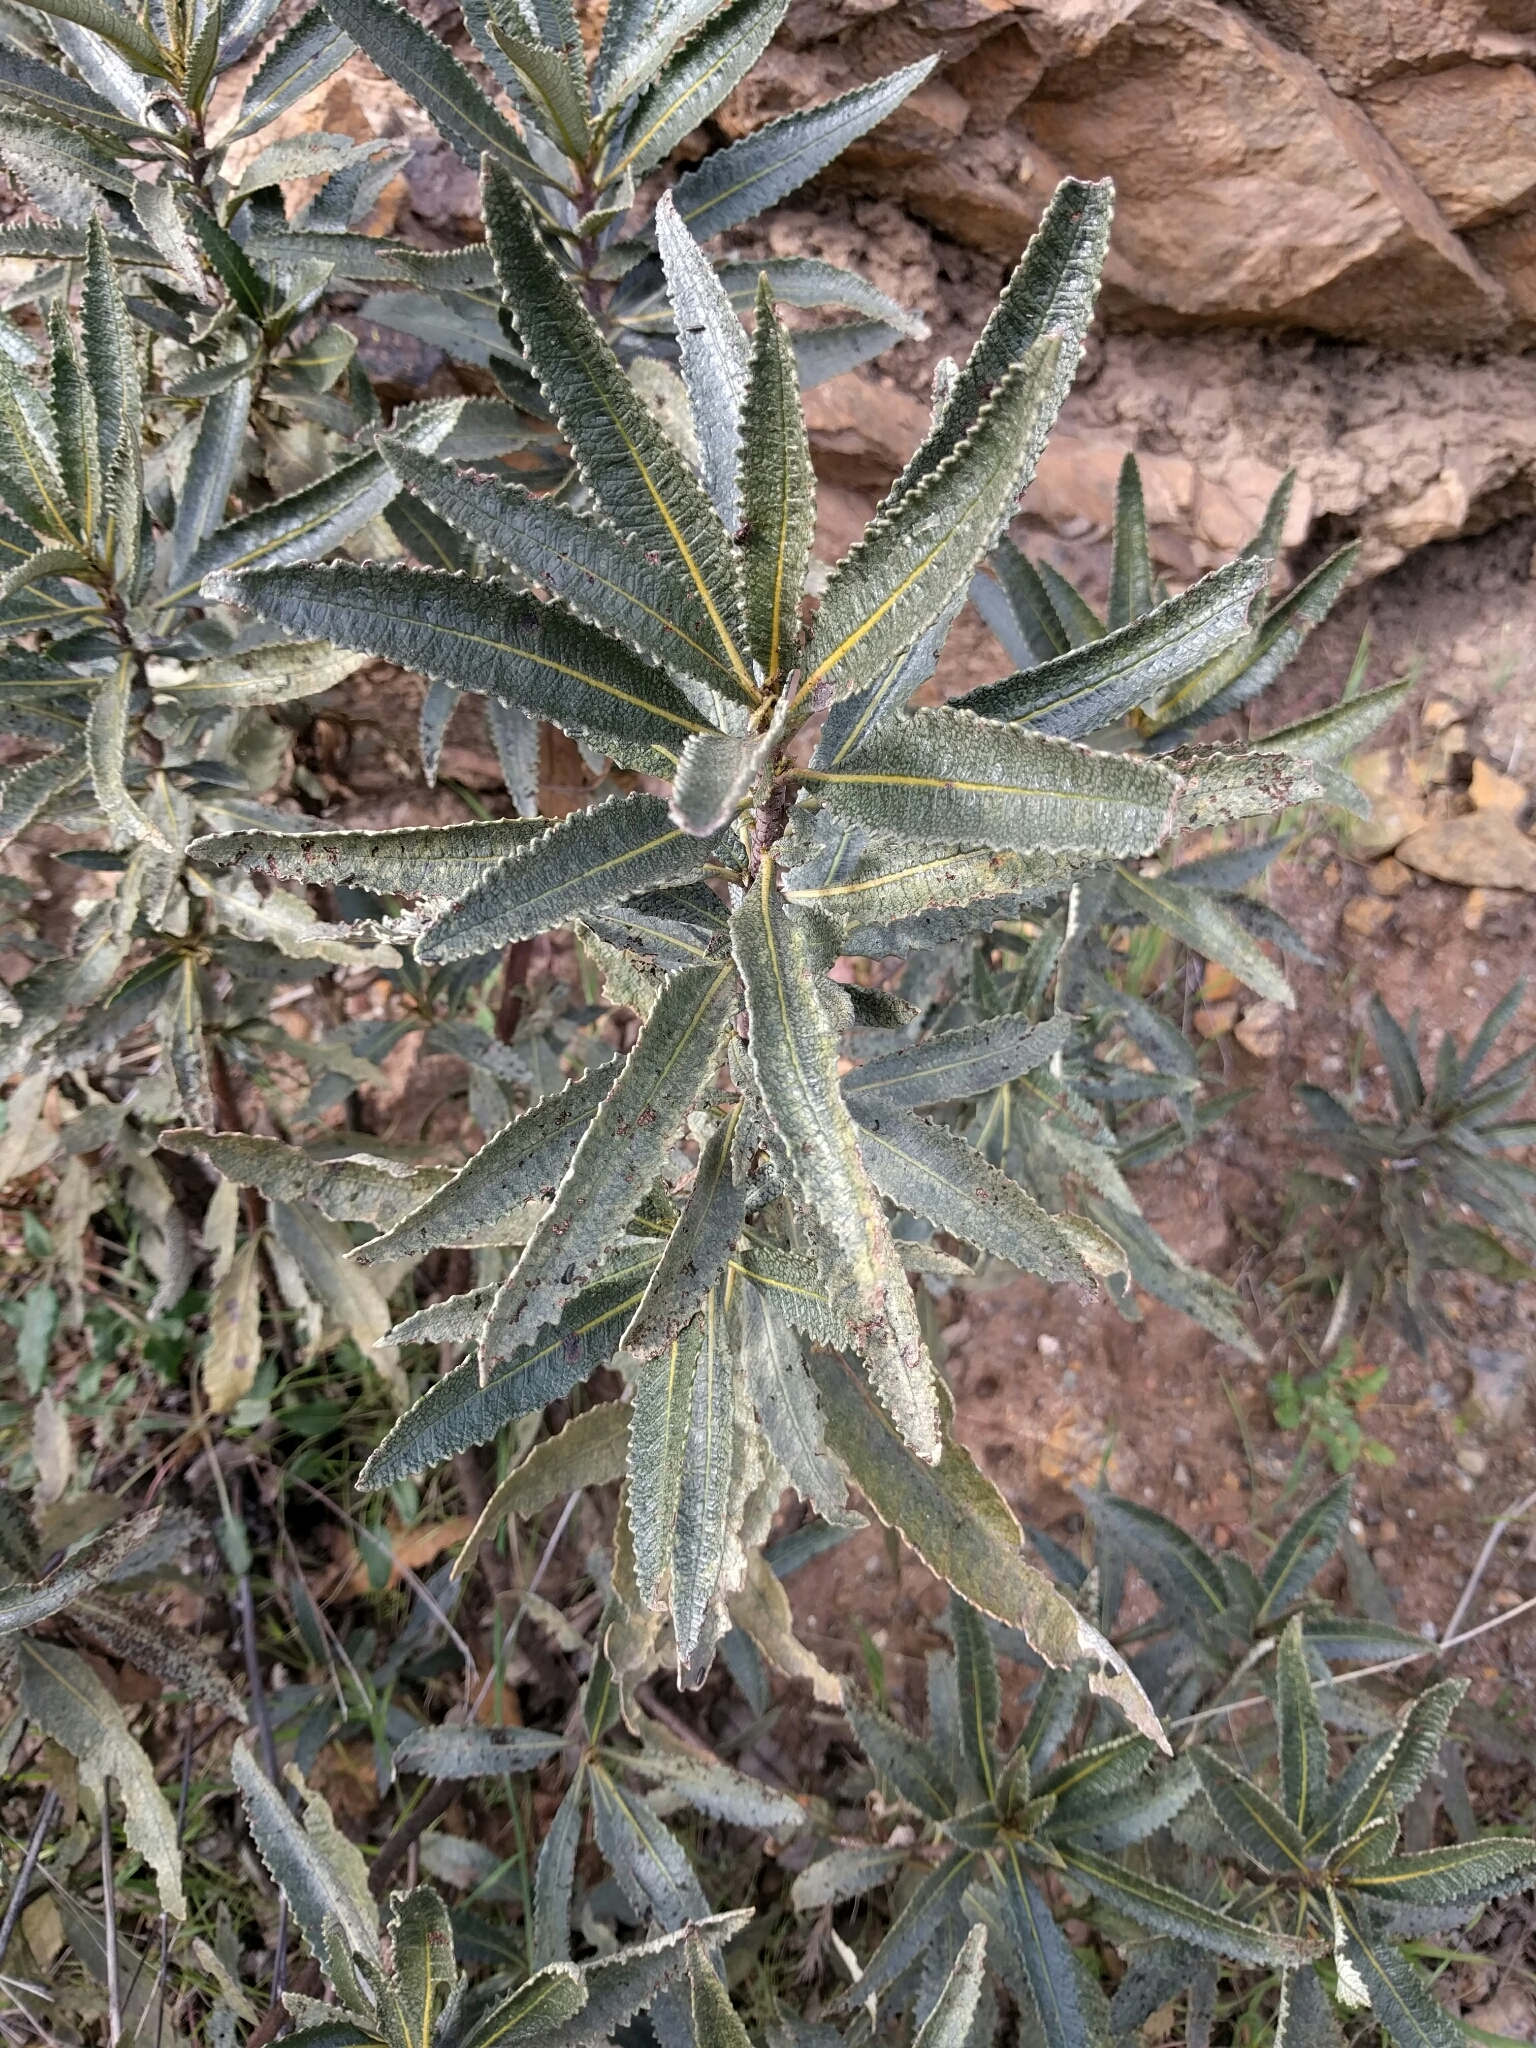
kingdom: Plantae
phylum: Tracheophyta
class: Magnoliopsida
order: Boraginales
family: Namaceae
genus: Eriodictyon
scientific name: Eriodictyon californicum
